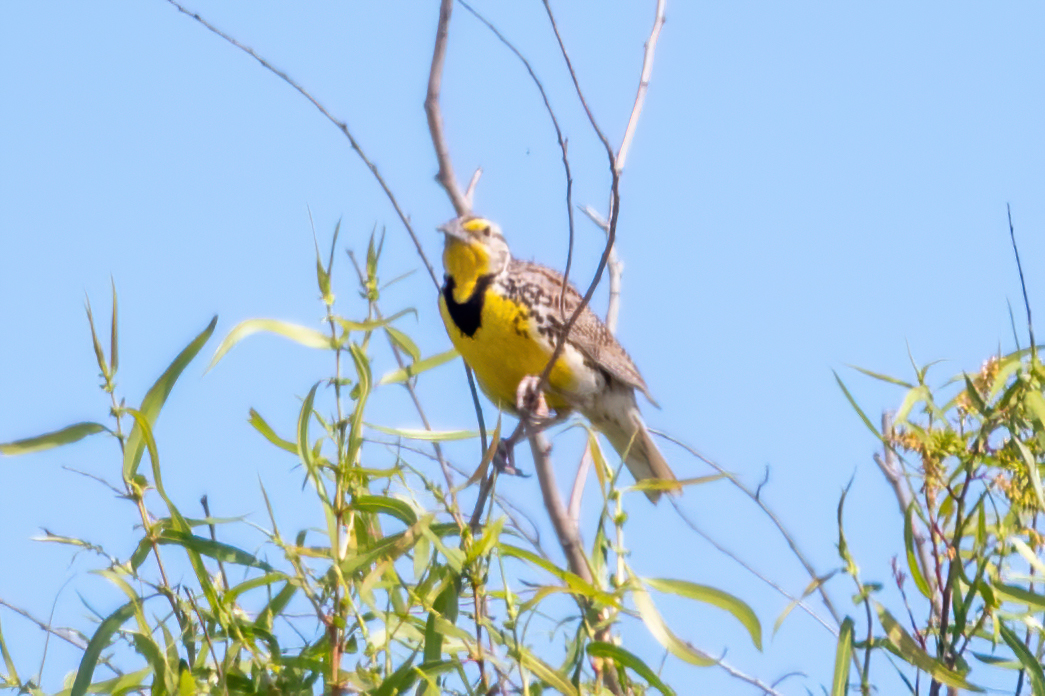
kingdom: Animalia
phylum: Chordata
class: Aves
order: Passeriformes
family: Icteridae
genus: Sturnella
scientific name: Sturnella neglecta
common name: Western meadowlark
